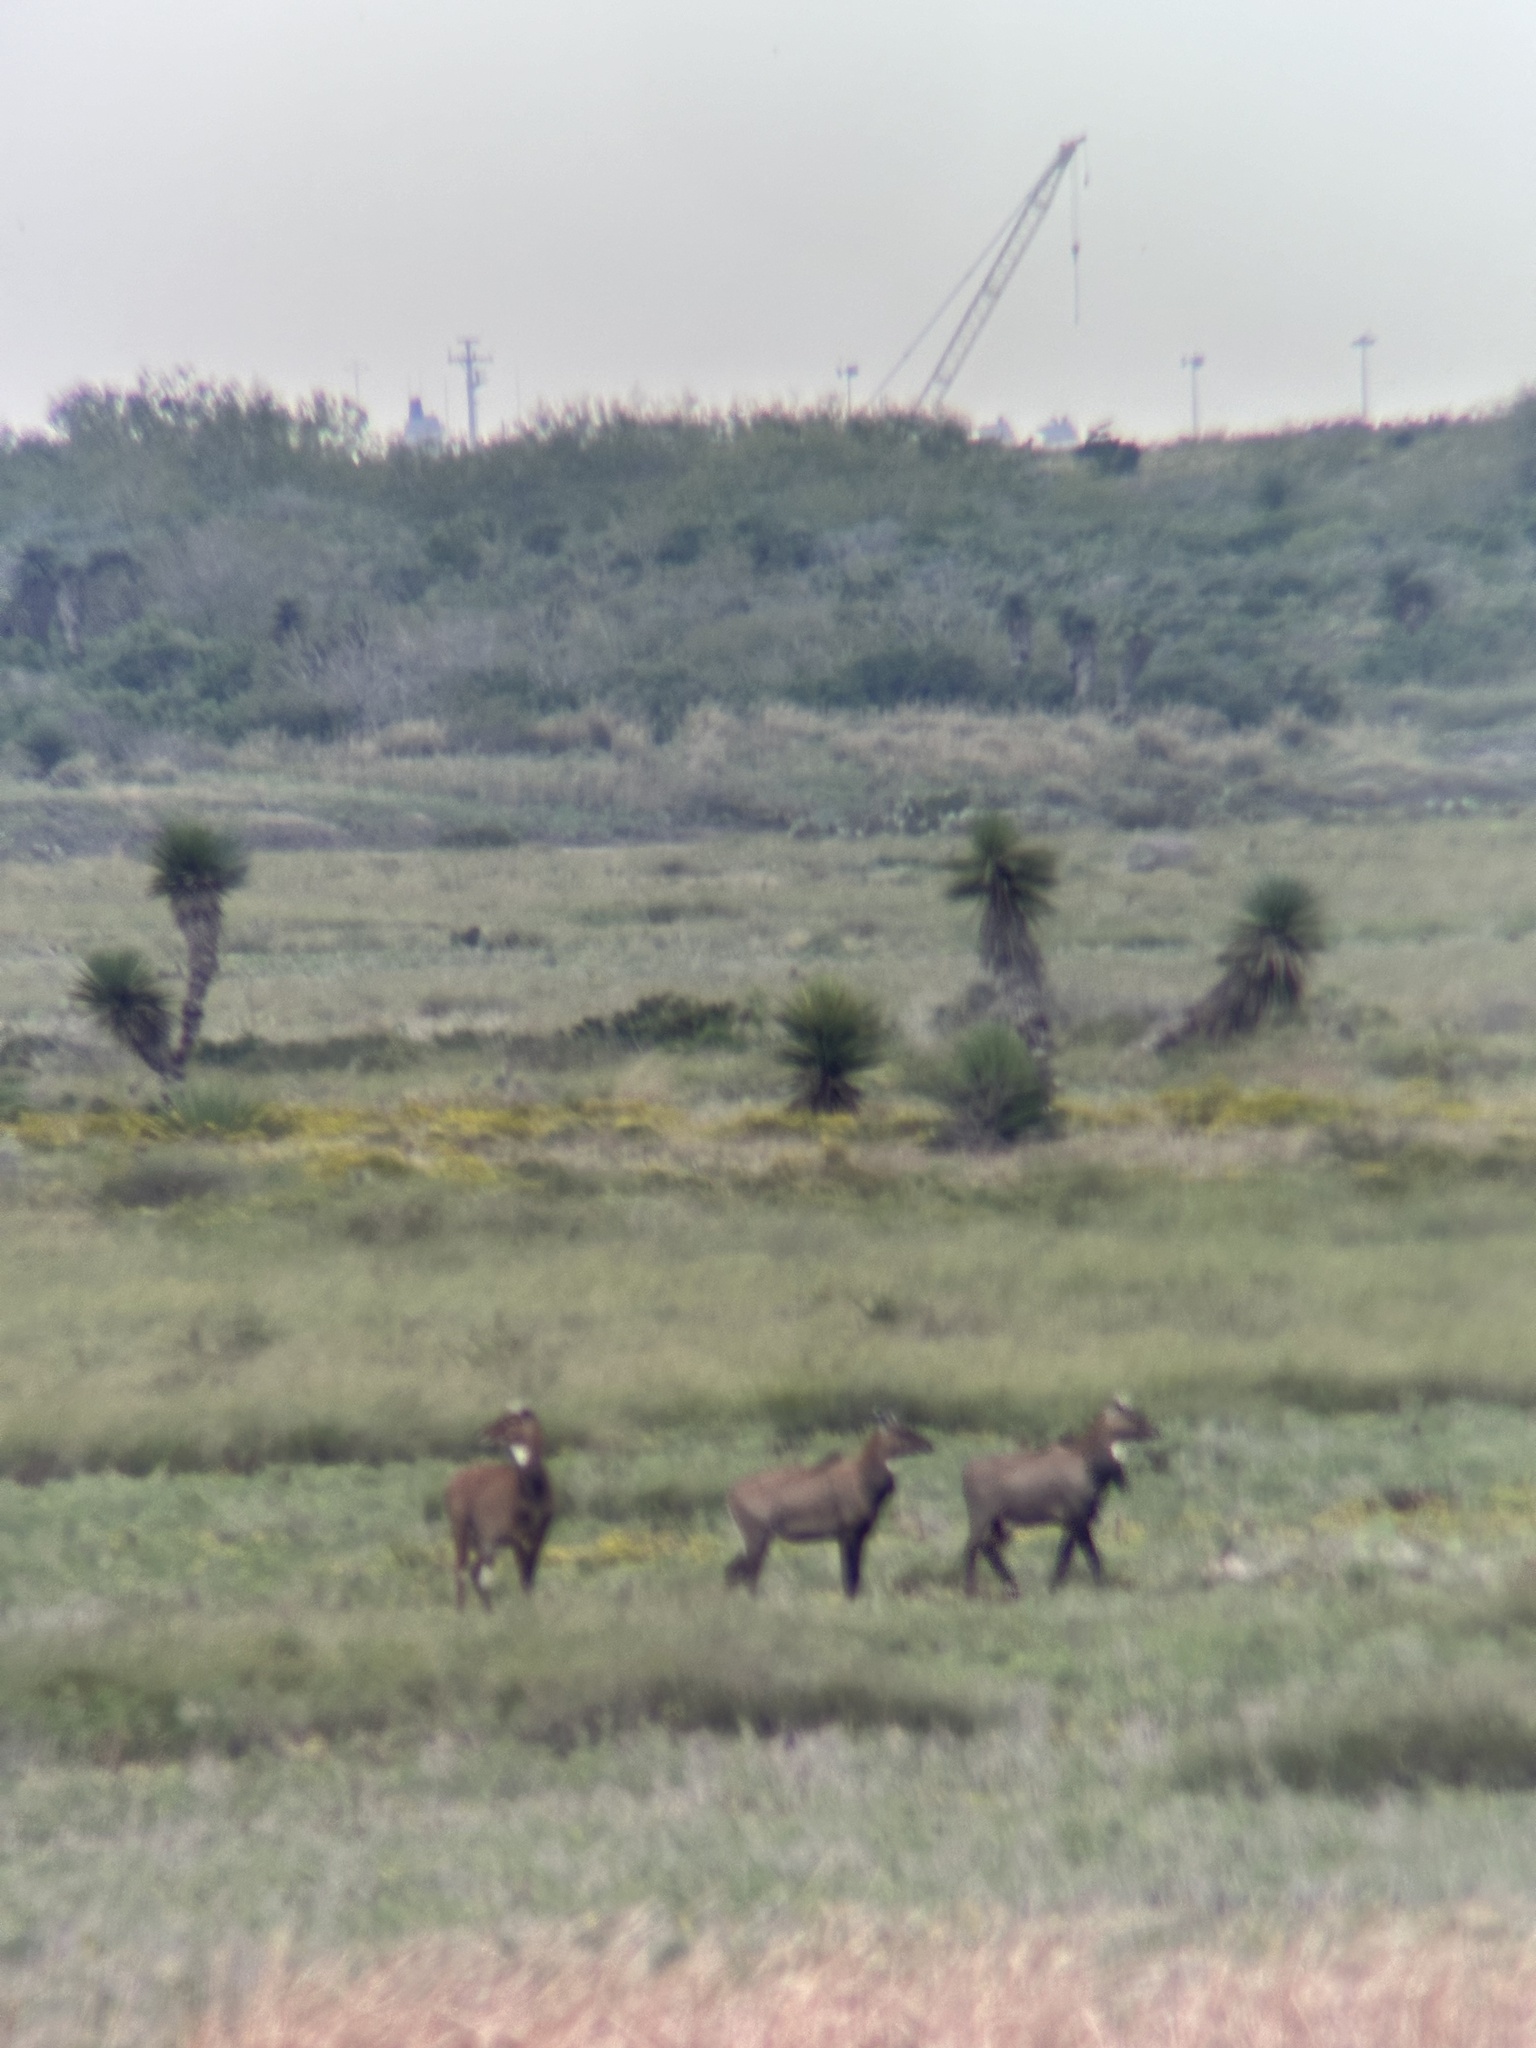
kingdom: Animalia
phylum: Chordata
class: Mammalia
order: Artiodactyla
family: Bovidae
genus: Boselaphus
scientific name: Boselaphus tragocamelus
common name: Nilgai
